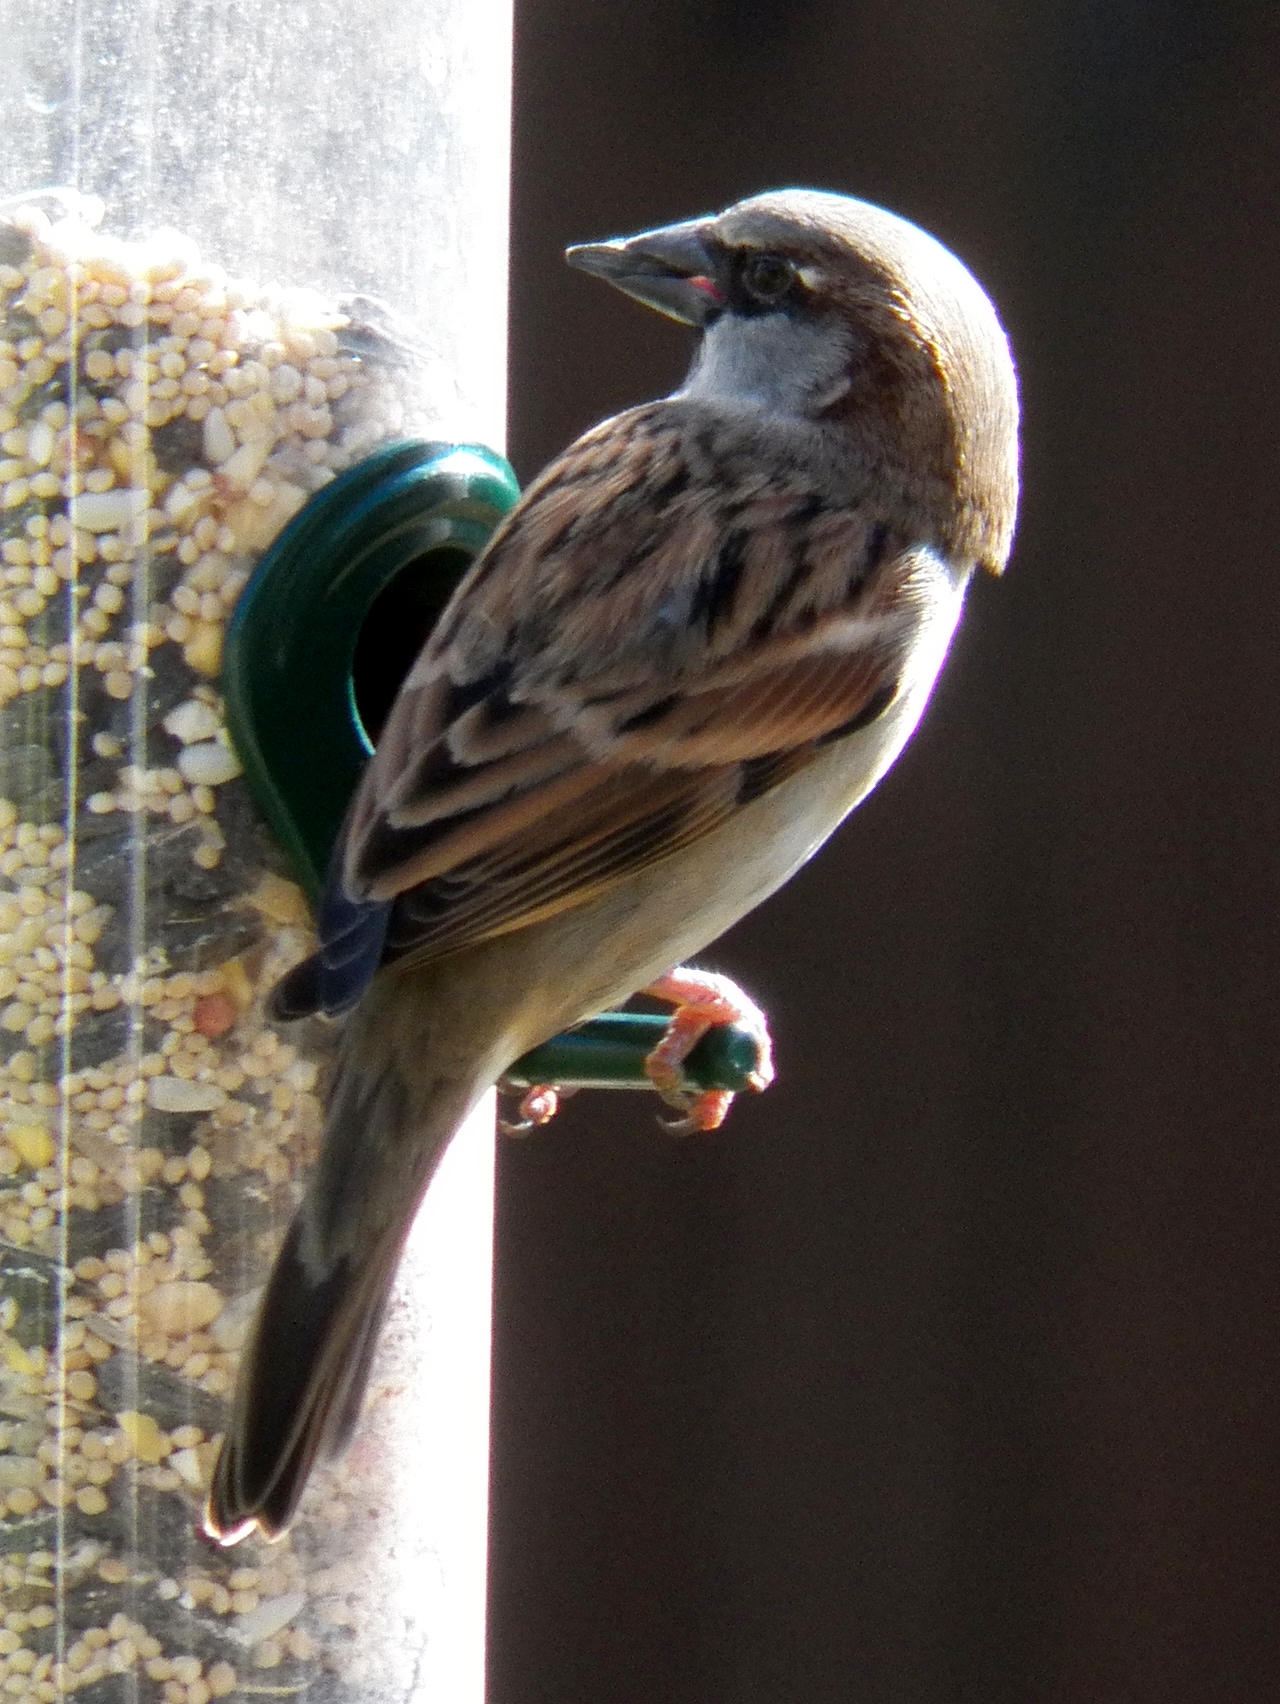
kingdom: Animalia
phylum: Chordata
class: Aves
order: Passeriformes
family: Passeridae
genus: Passer
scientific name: Passer domesticus
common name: House sparrow
